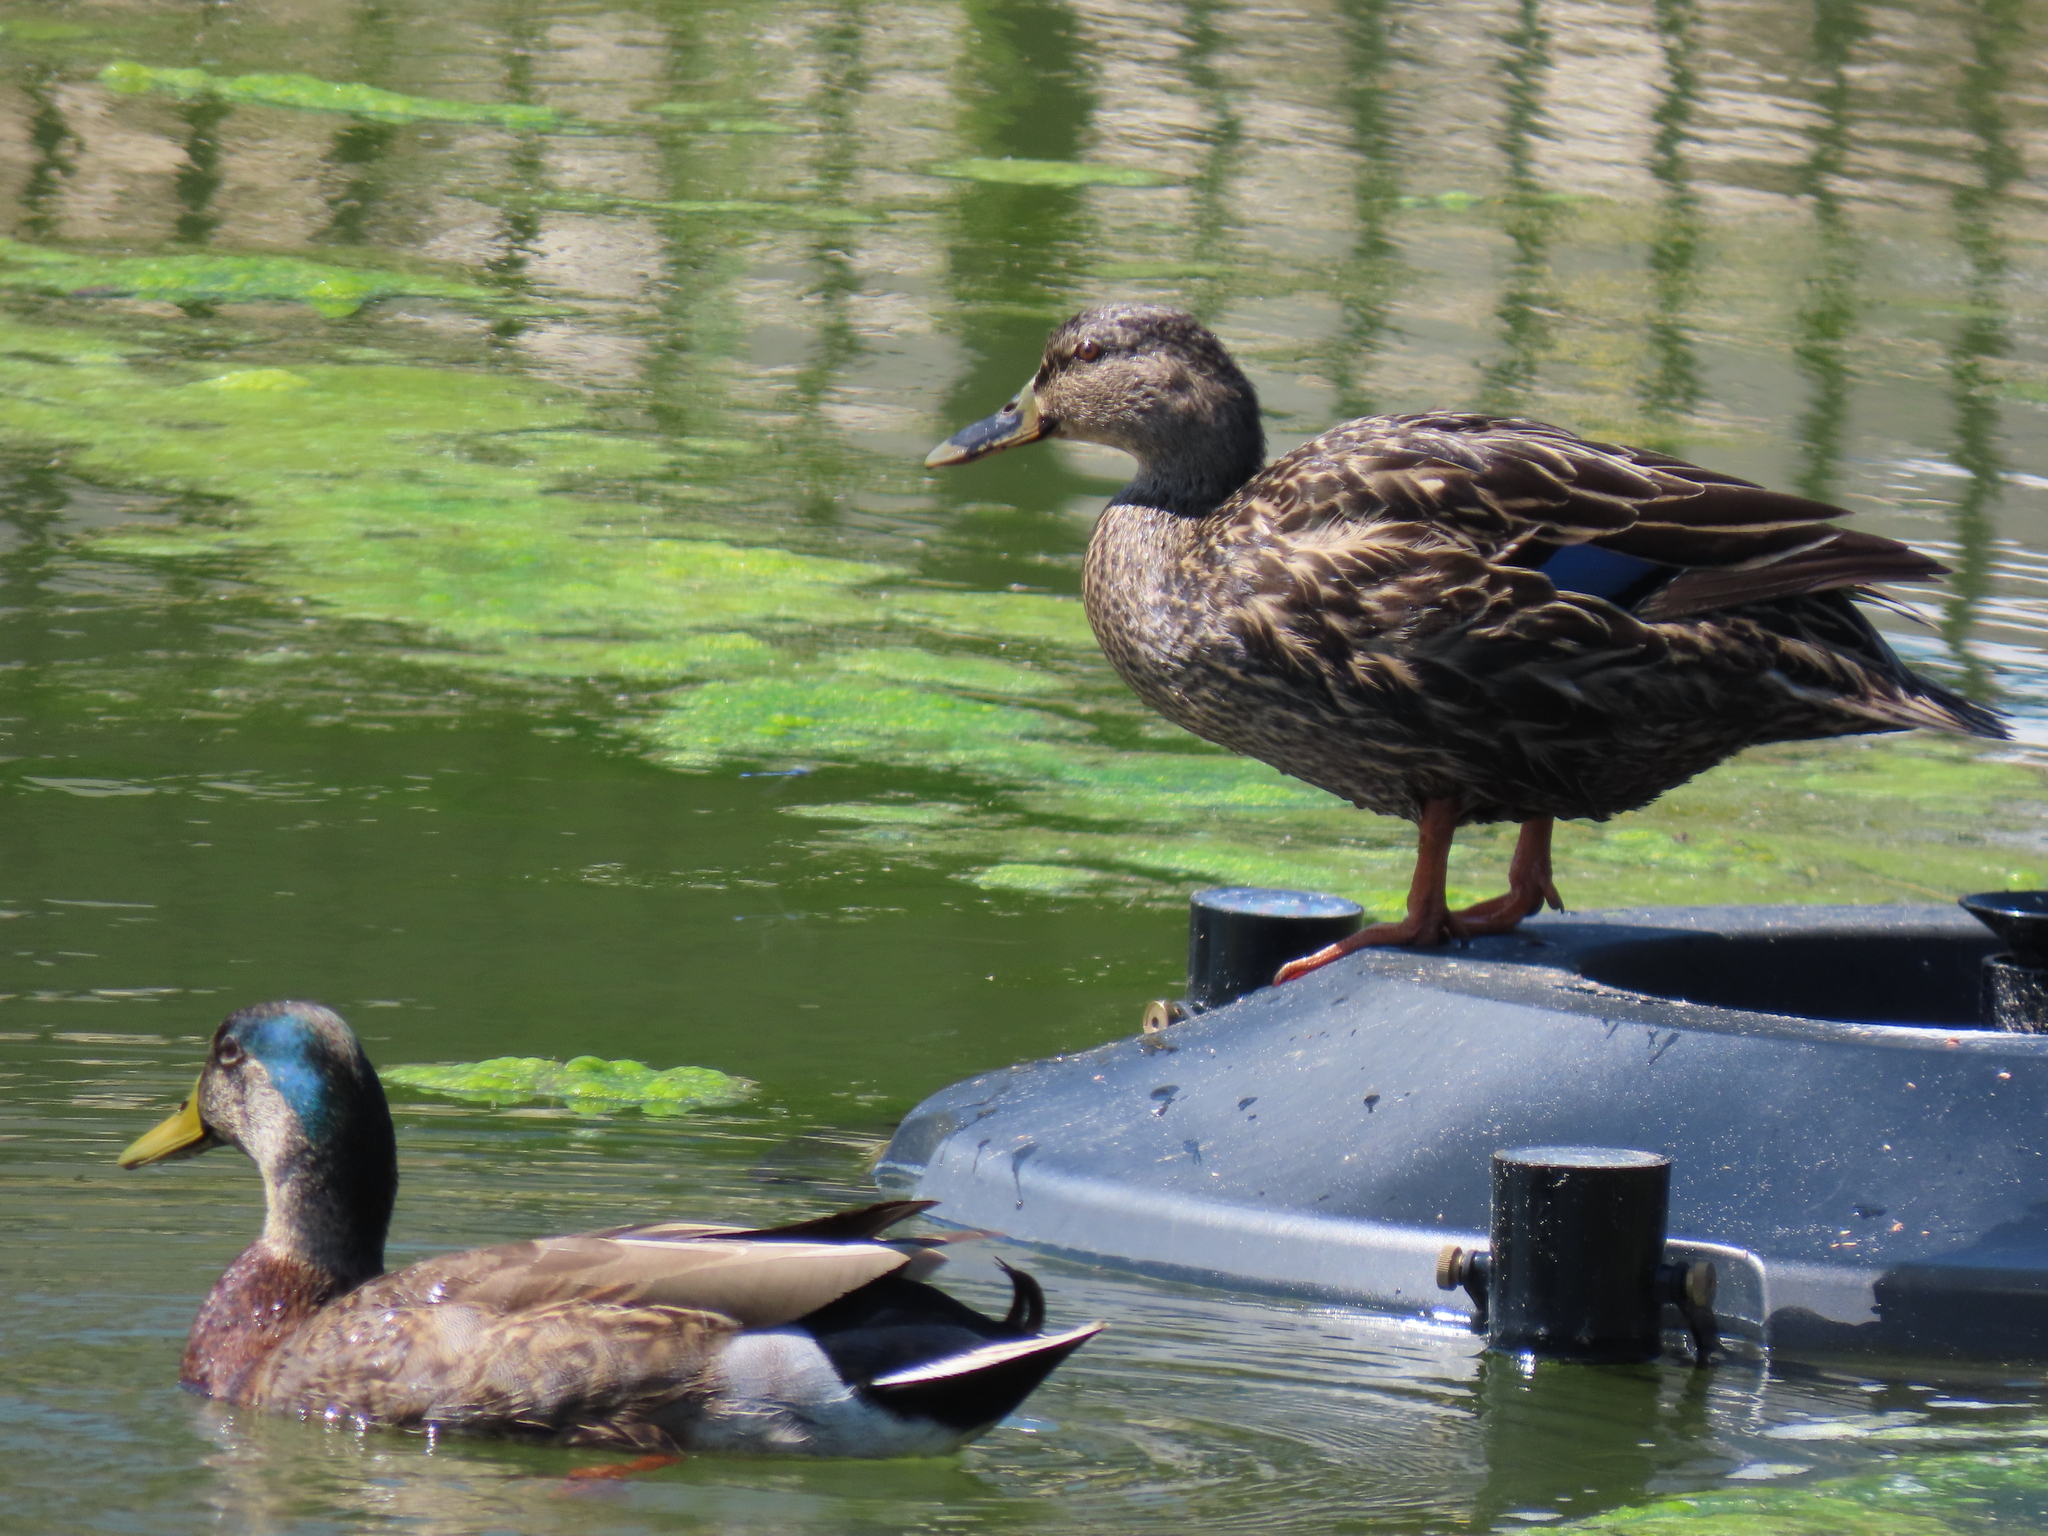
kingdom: Animalia
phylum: Chordata
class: Aves
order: Anseriformes
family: Anatidae
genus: Anas
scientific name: Anas platyrhynchos
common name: Mallard
